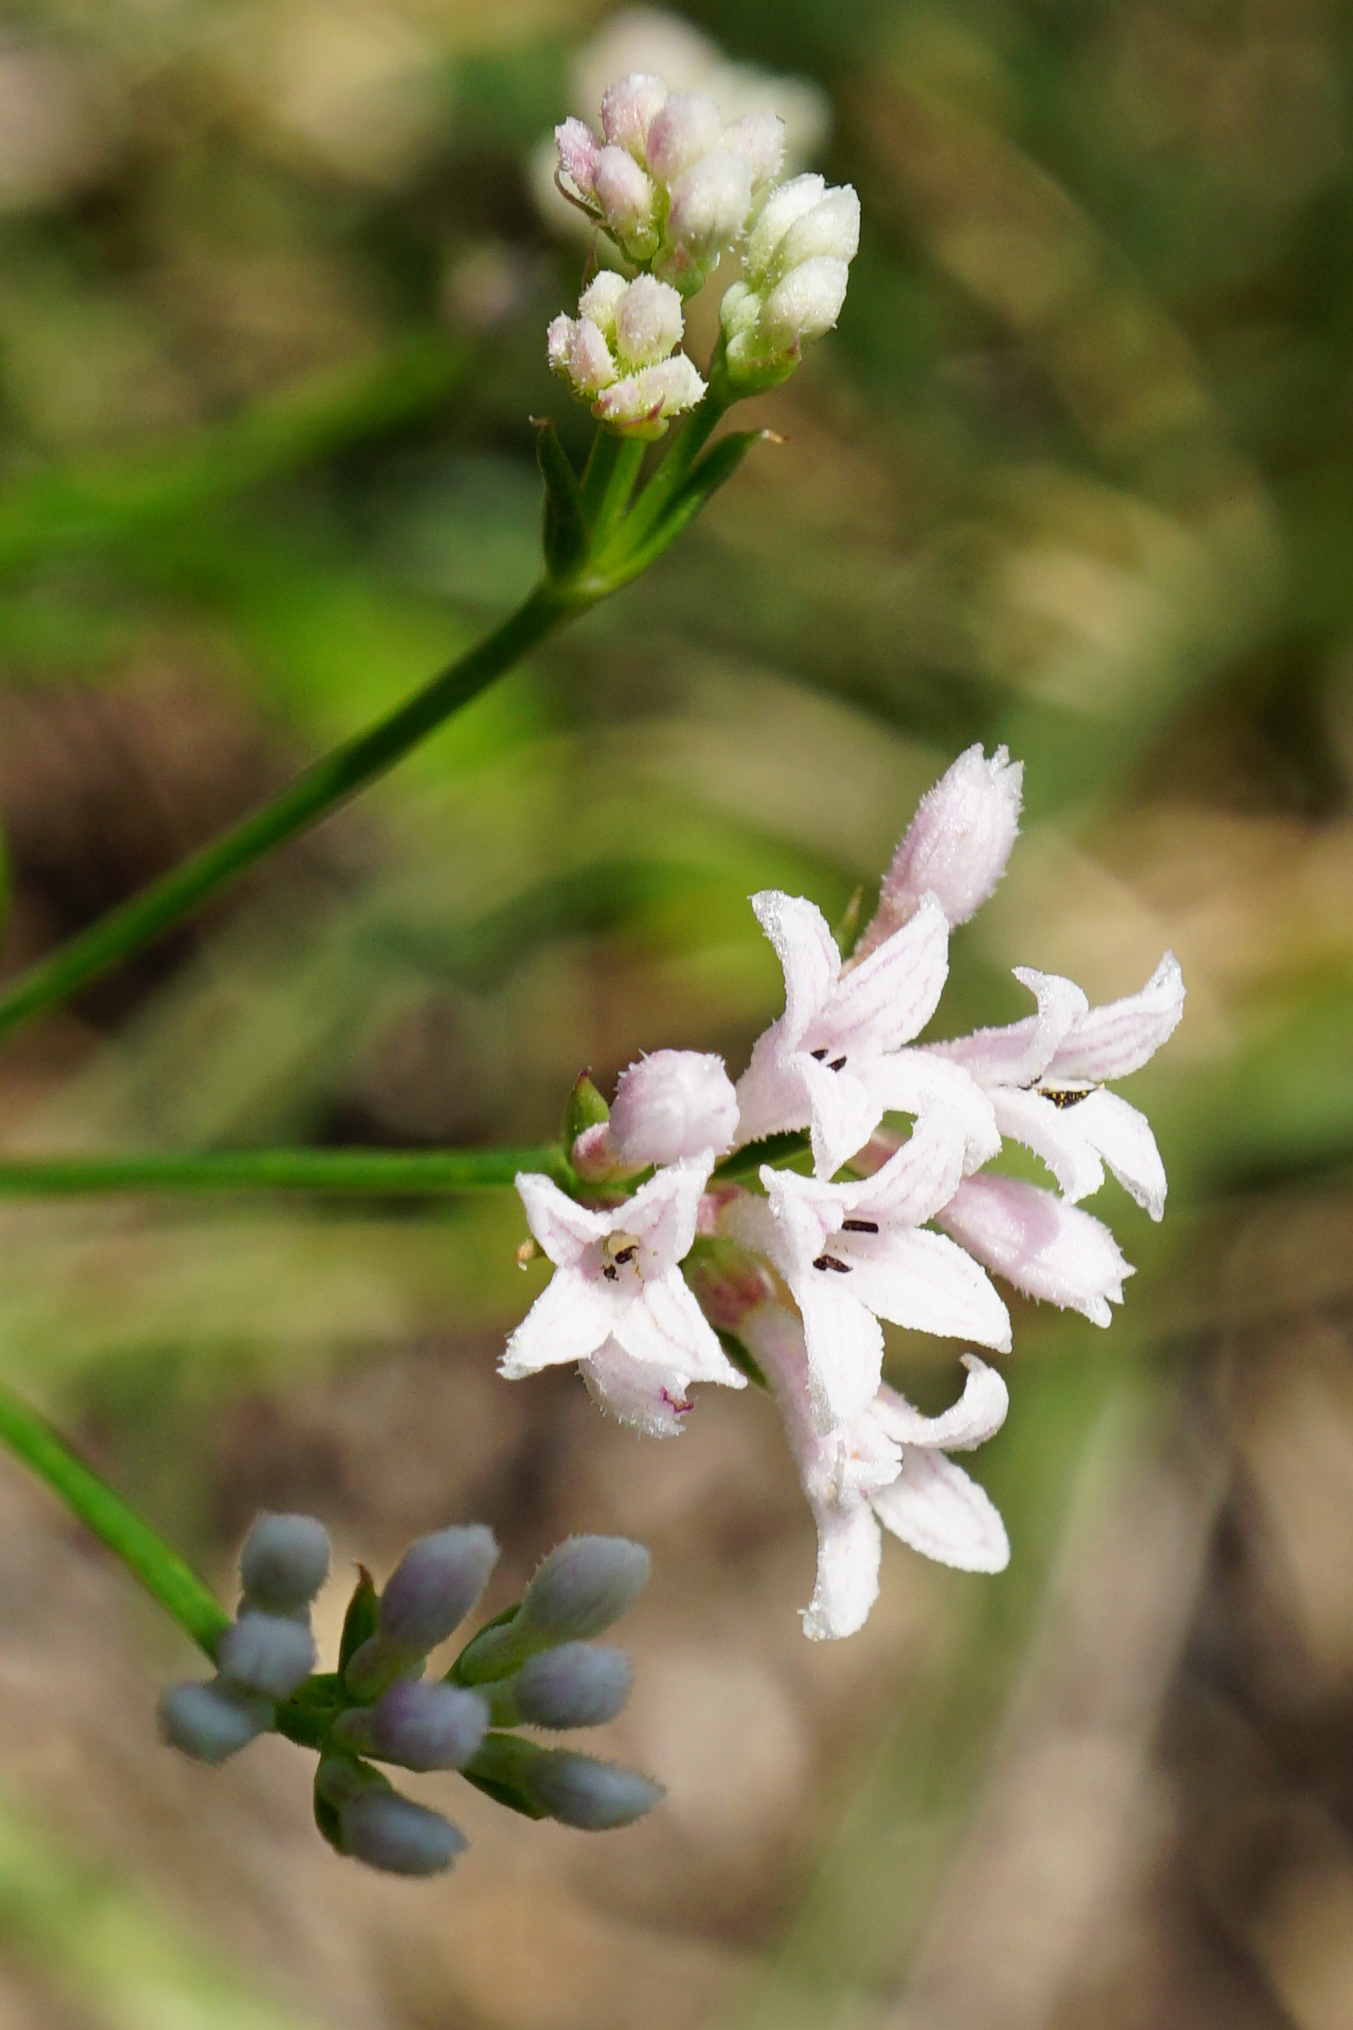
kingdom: Plantae
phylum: Tracheophyta
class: Magnoliopsida
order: Gentianales
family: Rubiaceae
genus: Cynanchica
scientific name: Cynanchica pyrenaica
